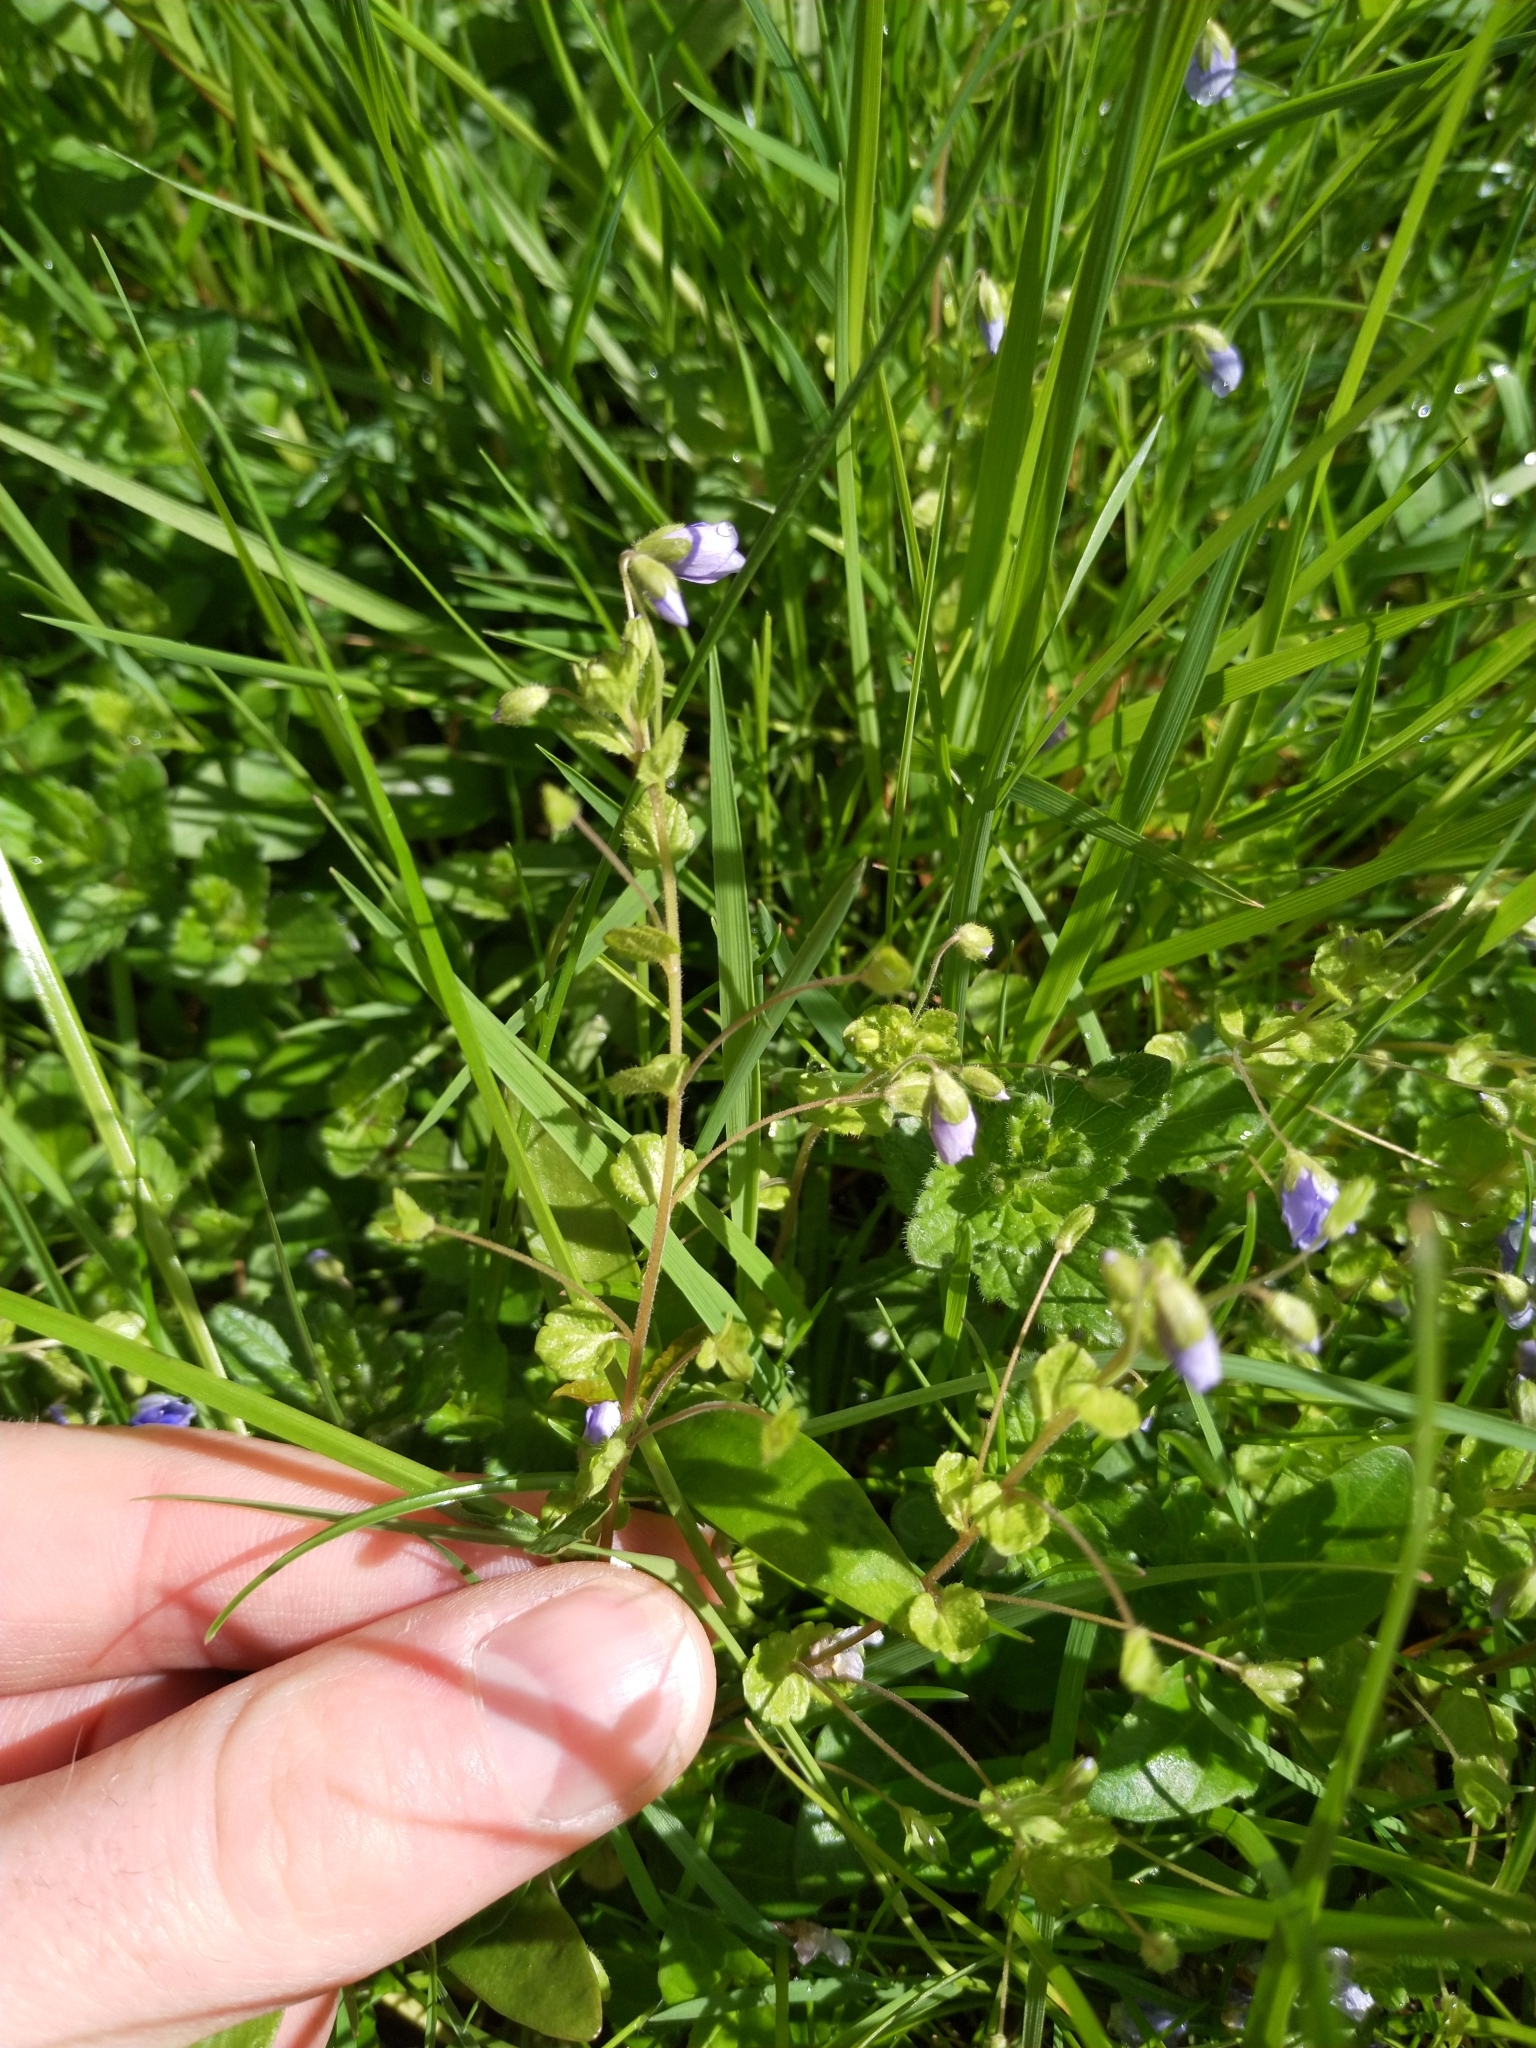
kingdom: Plantae
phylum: Tracheophyta
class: Magnoliopsida
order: Lamiales
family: Plantaginaceae
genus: Veronica
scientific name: Veronica filiformis
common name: Slender speedwell
